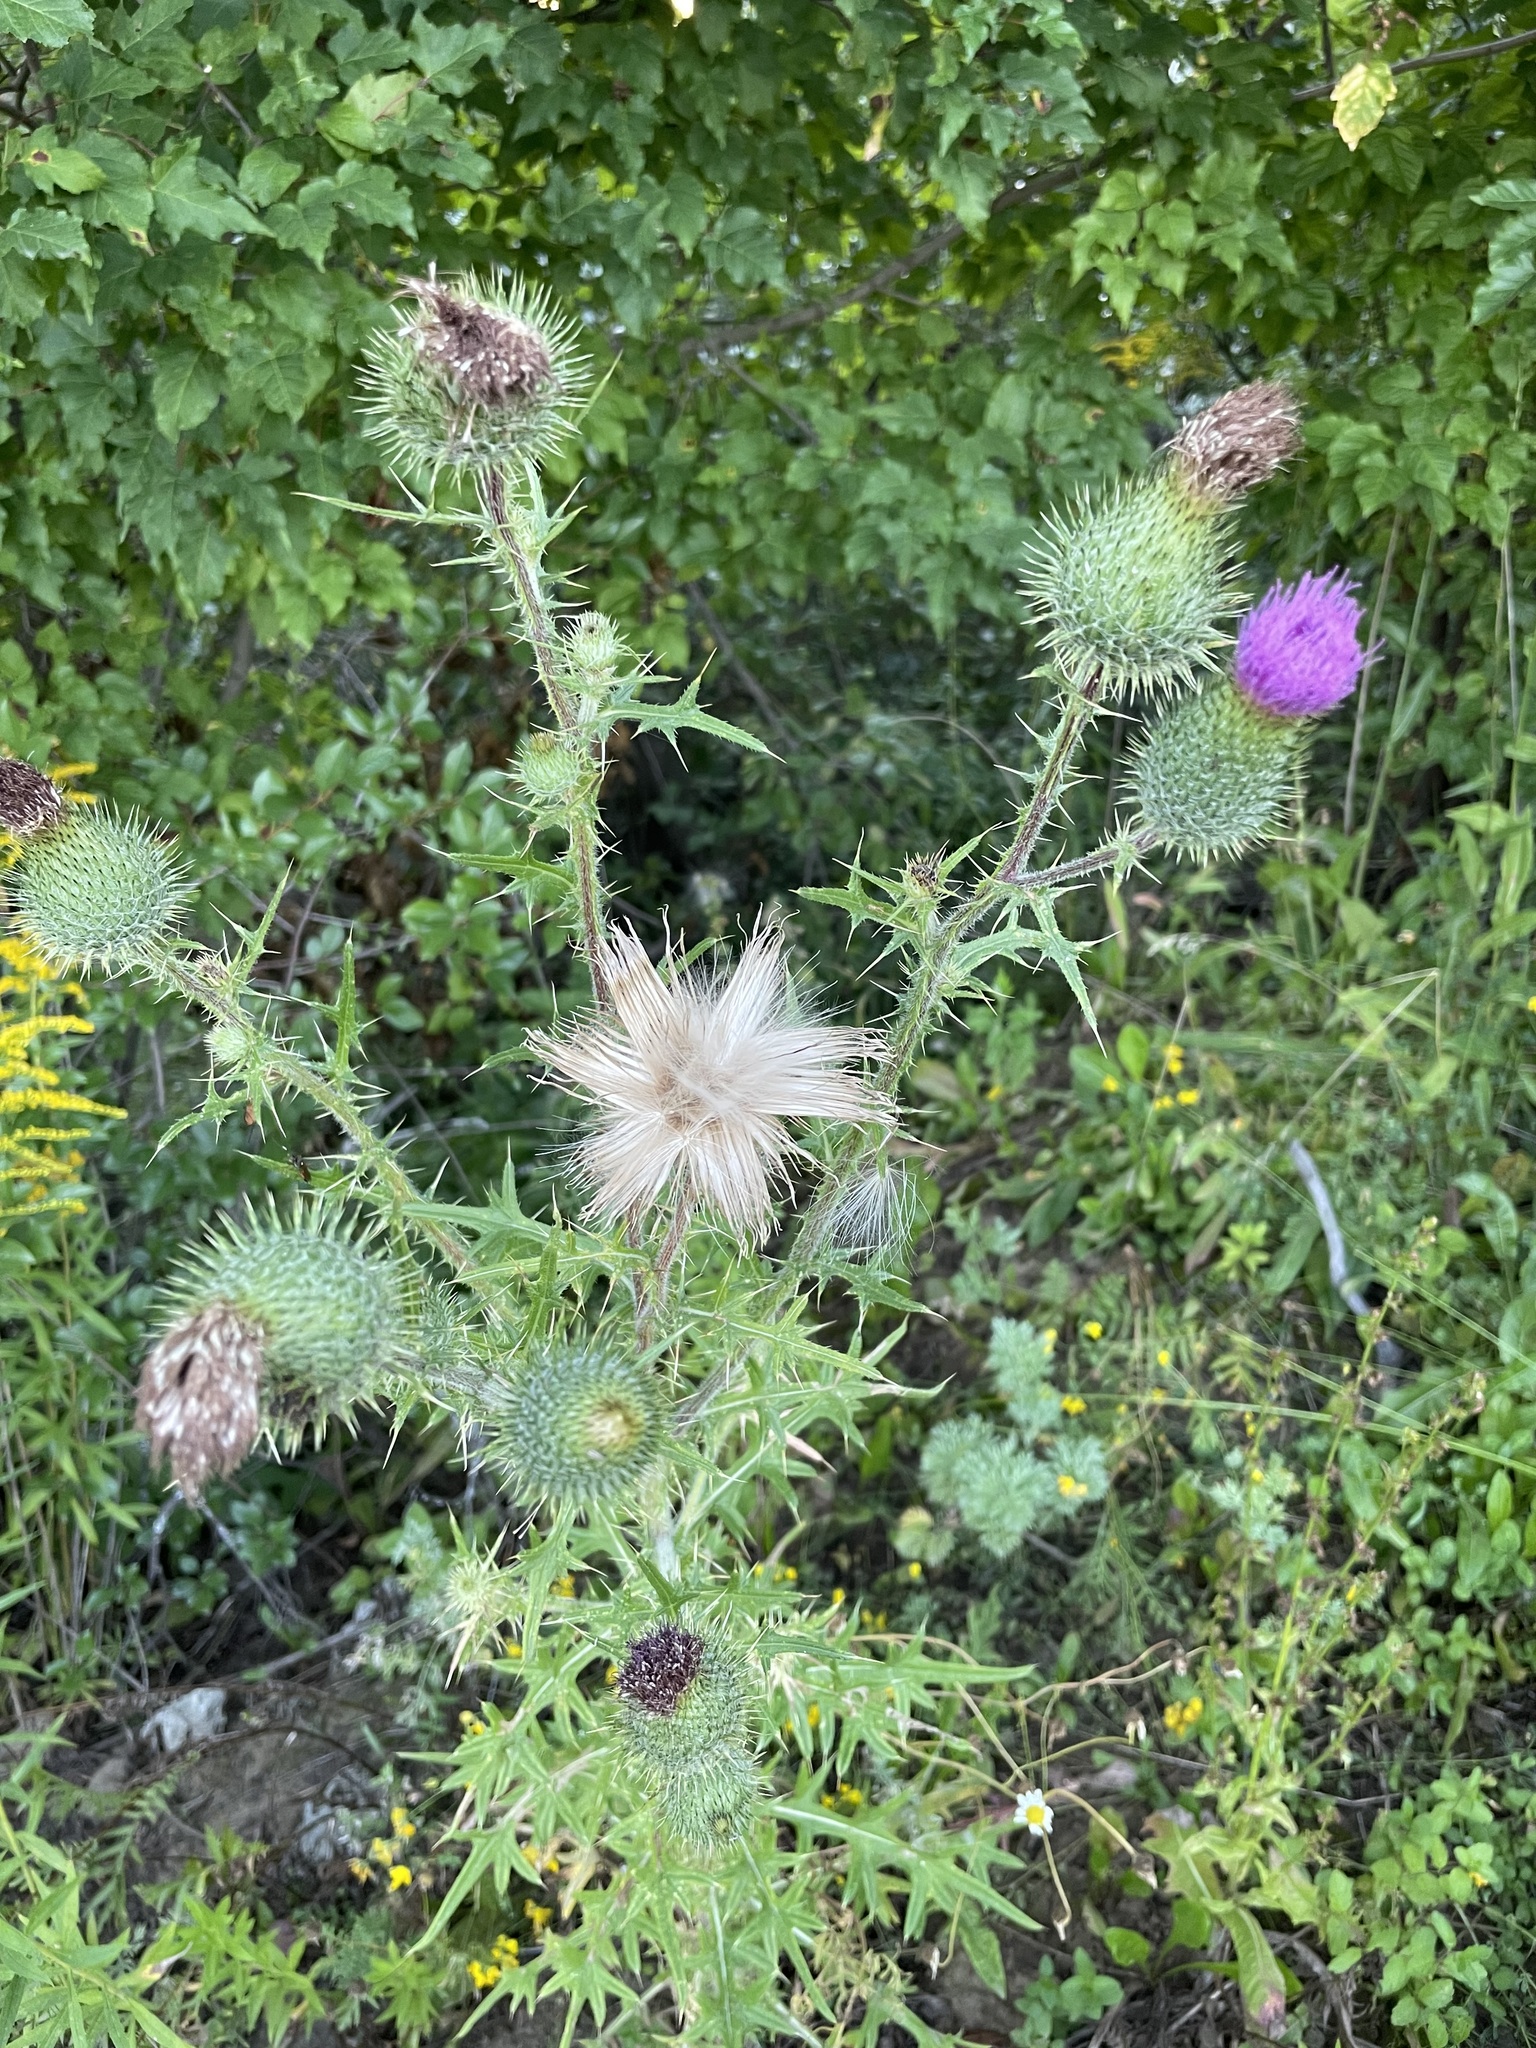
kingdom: Plantae
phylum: Tracheophyta
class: Magnoliopsida
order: Asterales
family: Asteraceae
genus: Cirsium
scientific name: Cirsium vulgare
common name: Bull thistle
